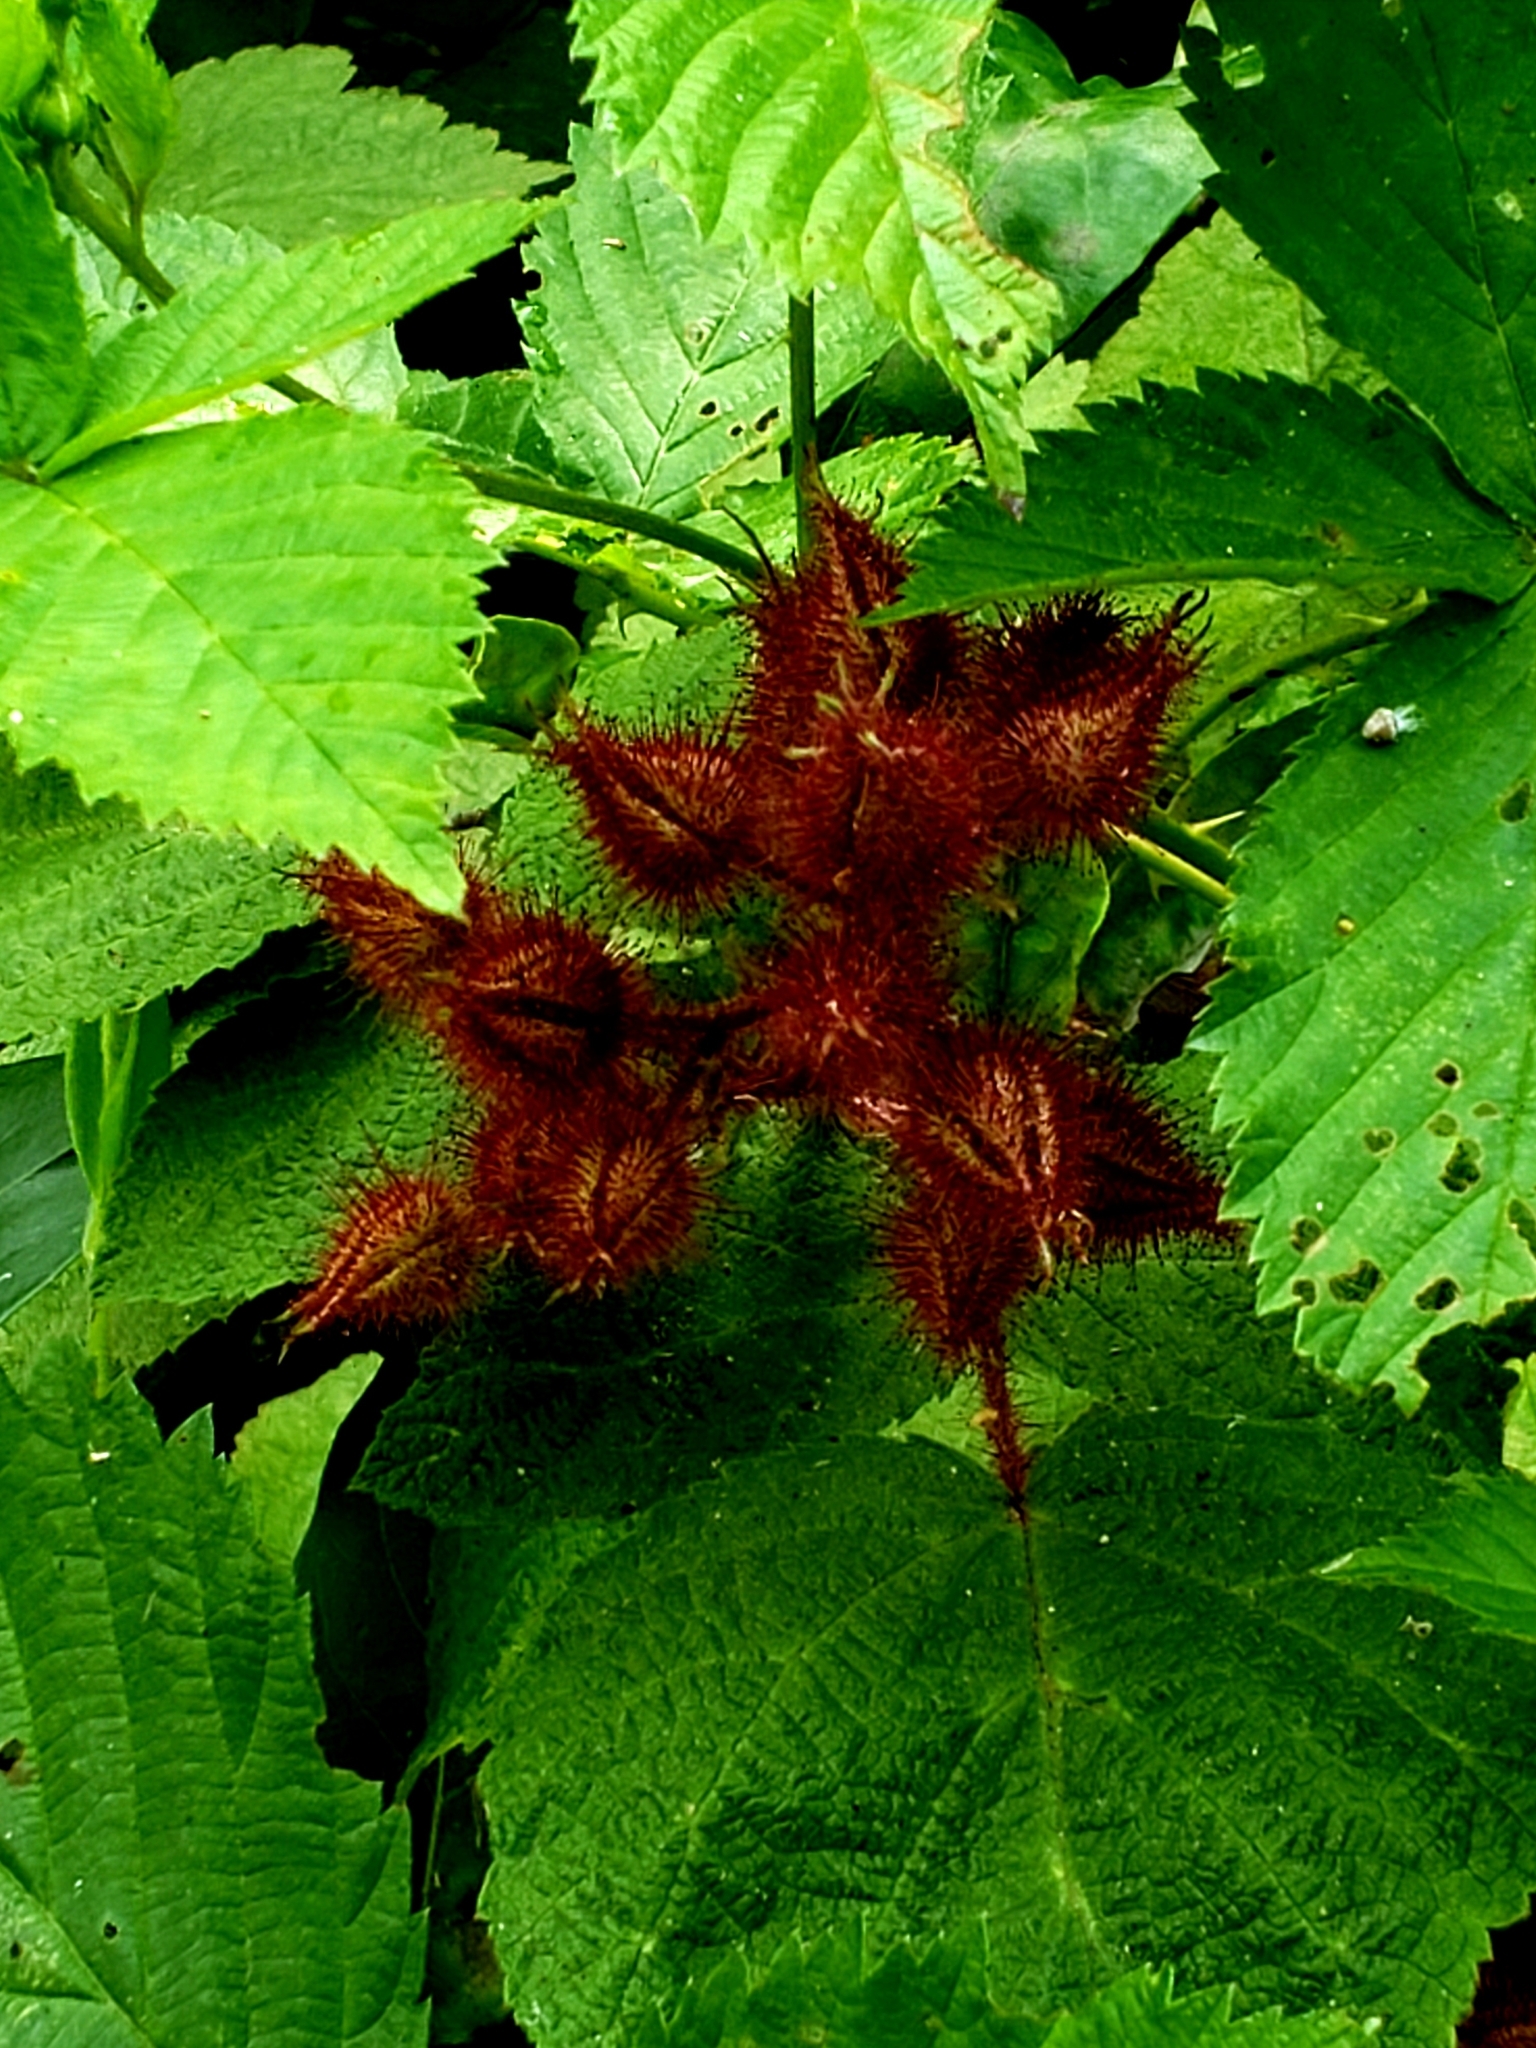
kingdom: Plantae
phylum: Tracheophyta
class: Magnoliopsida
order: Rosales
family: Rosaceae
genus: Rubus
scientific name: Rubus phoenicolasius
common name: Japanese wineberry
